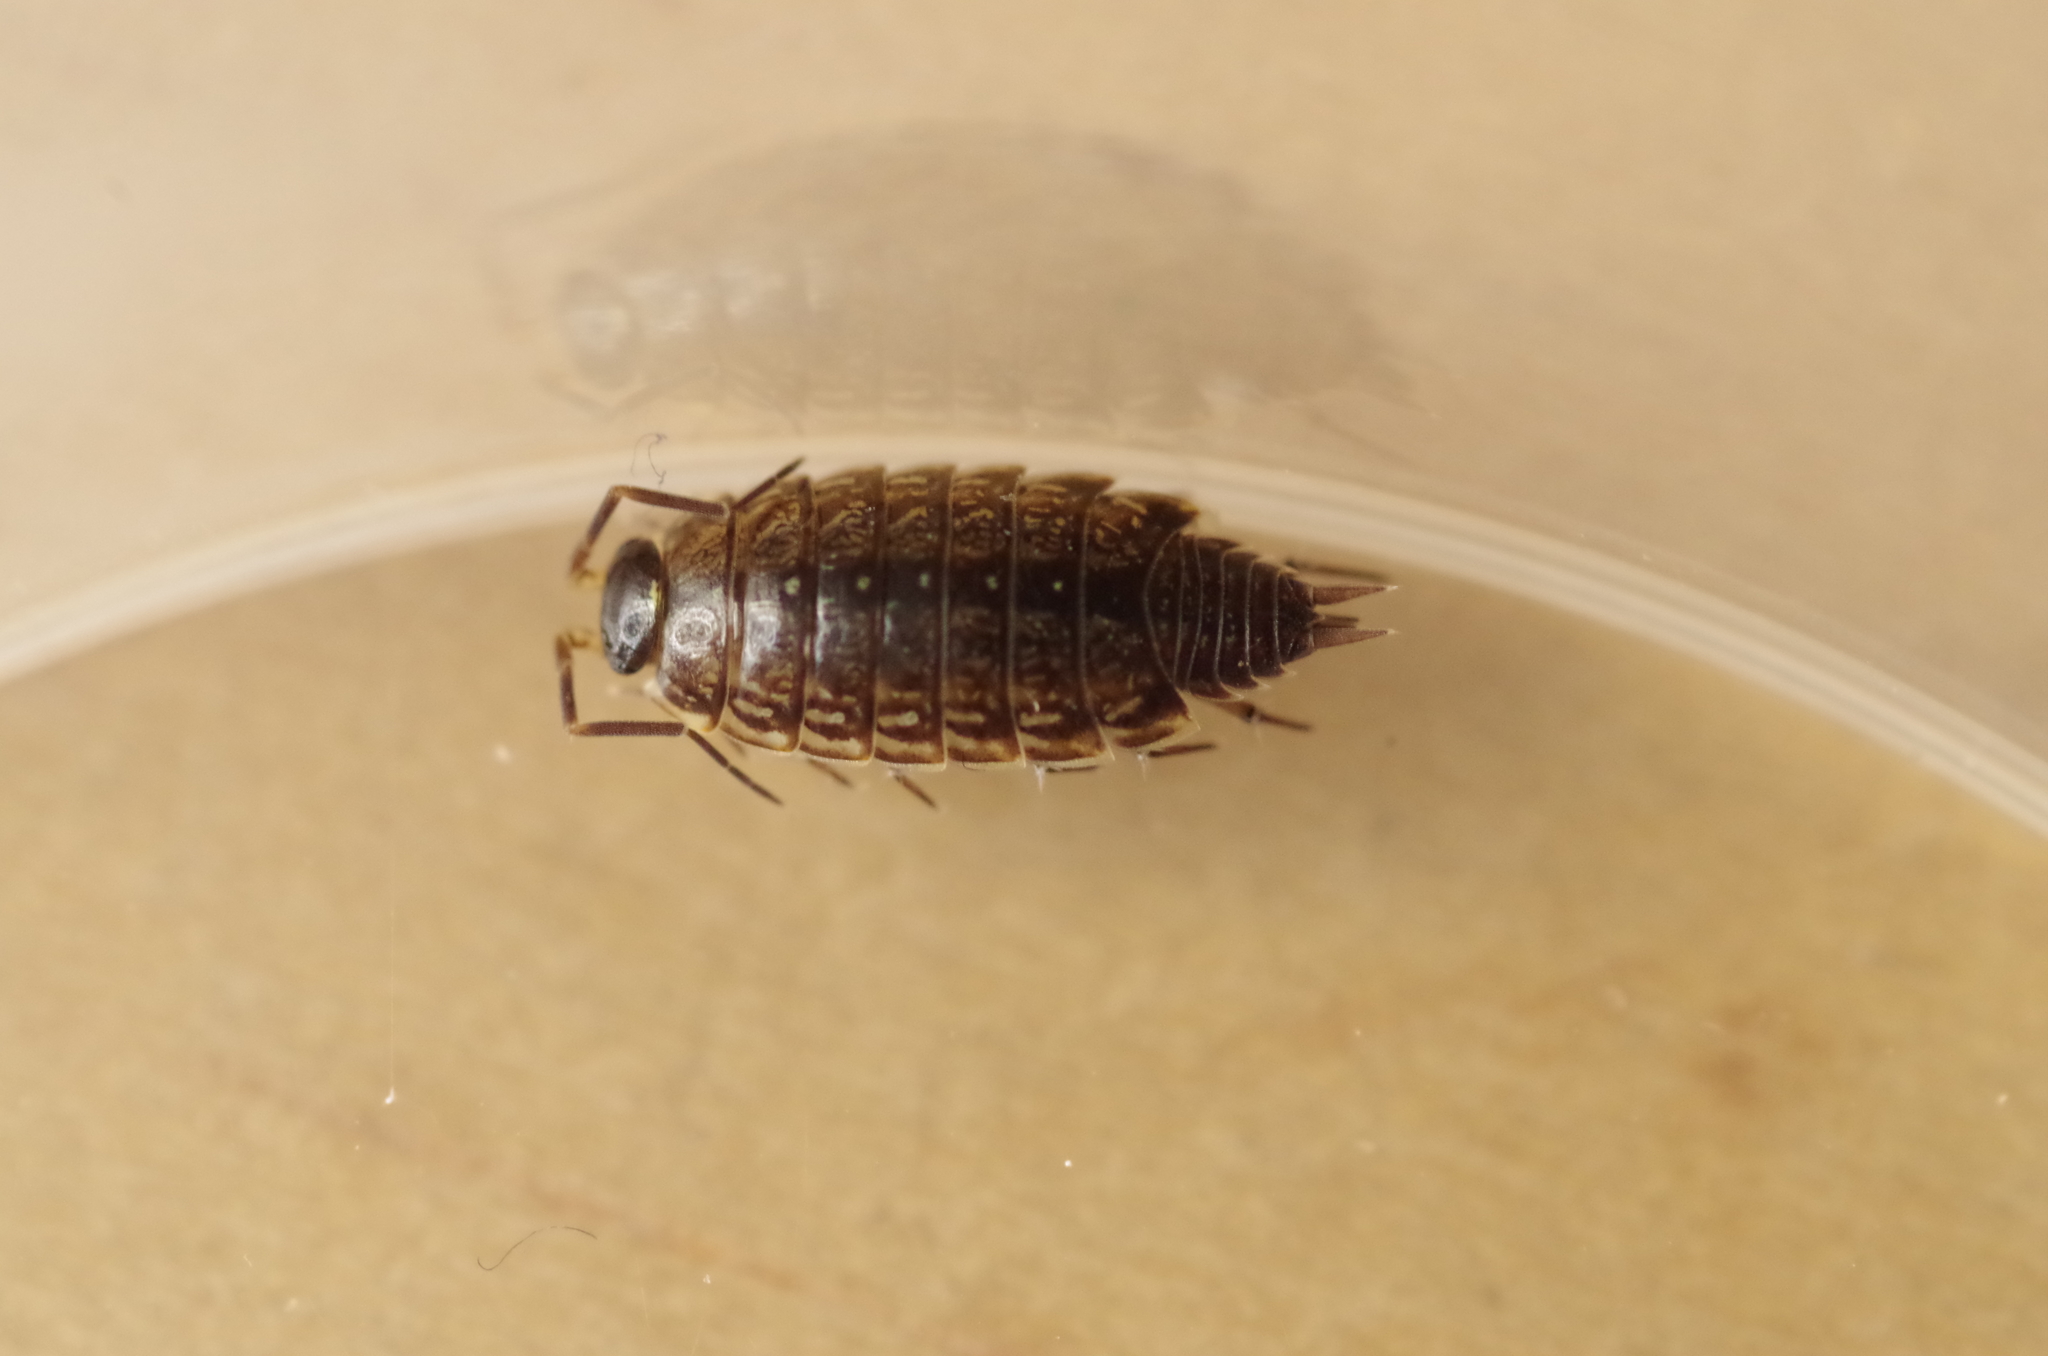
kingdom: Animalia
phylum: Arthropoda
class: Malacostraca
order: Isopoda
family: Philosciidae
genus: Philoscia
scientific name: Philoscia muscorum
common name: Common striped woodlouse
